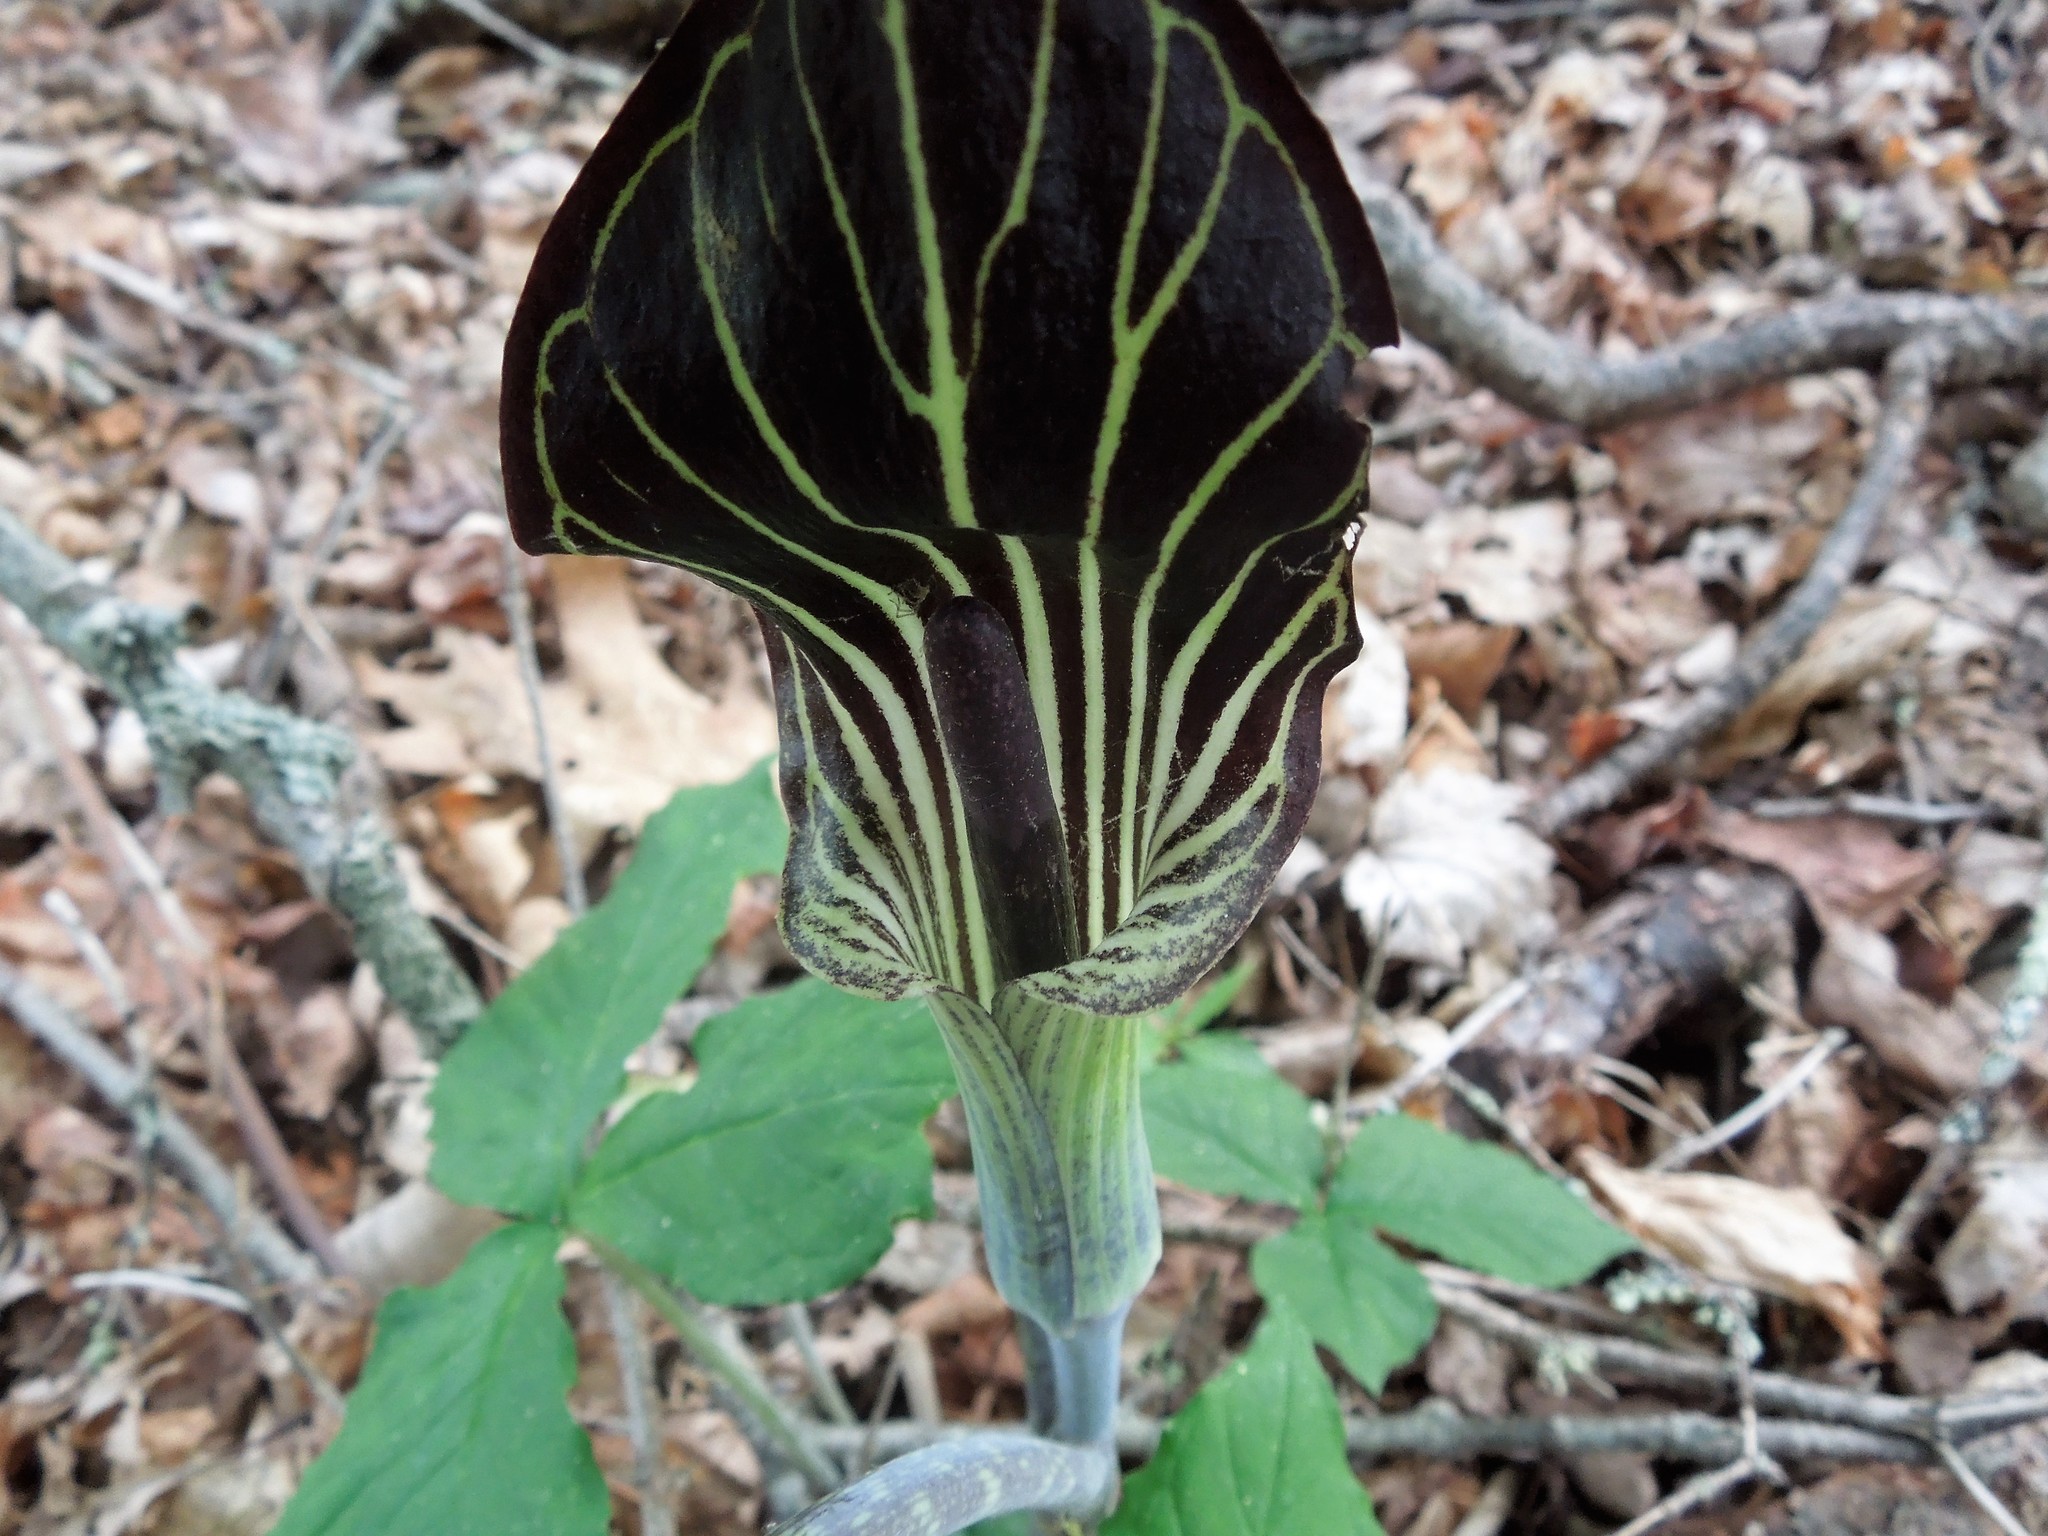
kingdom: Plantae
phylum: Tracheophyta
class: Liliopsida
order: Alismatales
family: Araceae
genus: Arisaema
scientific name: Arisaema triphyllum
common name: Jack-in-the-pulpit
